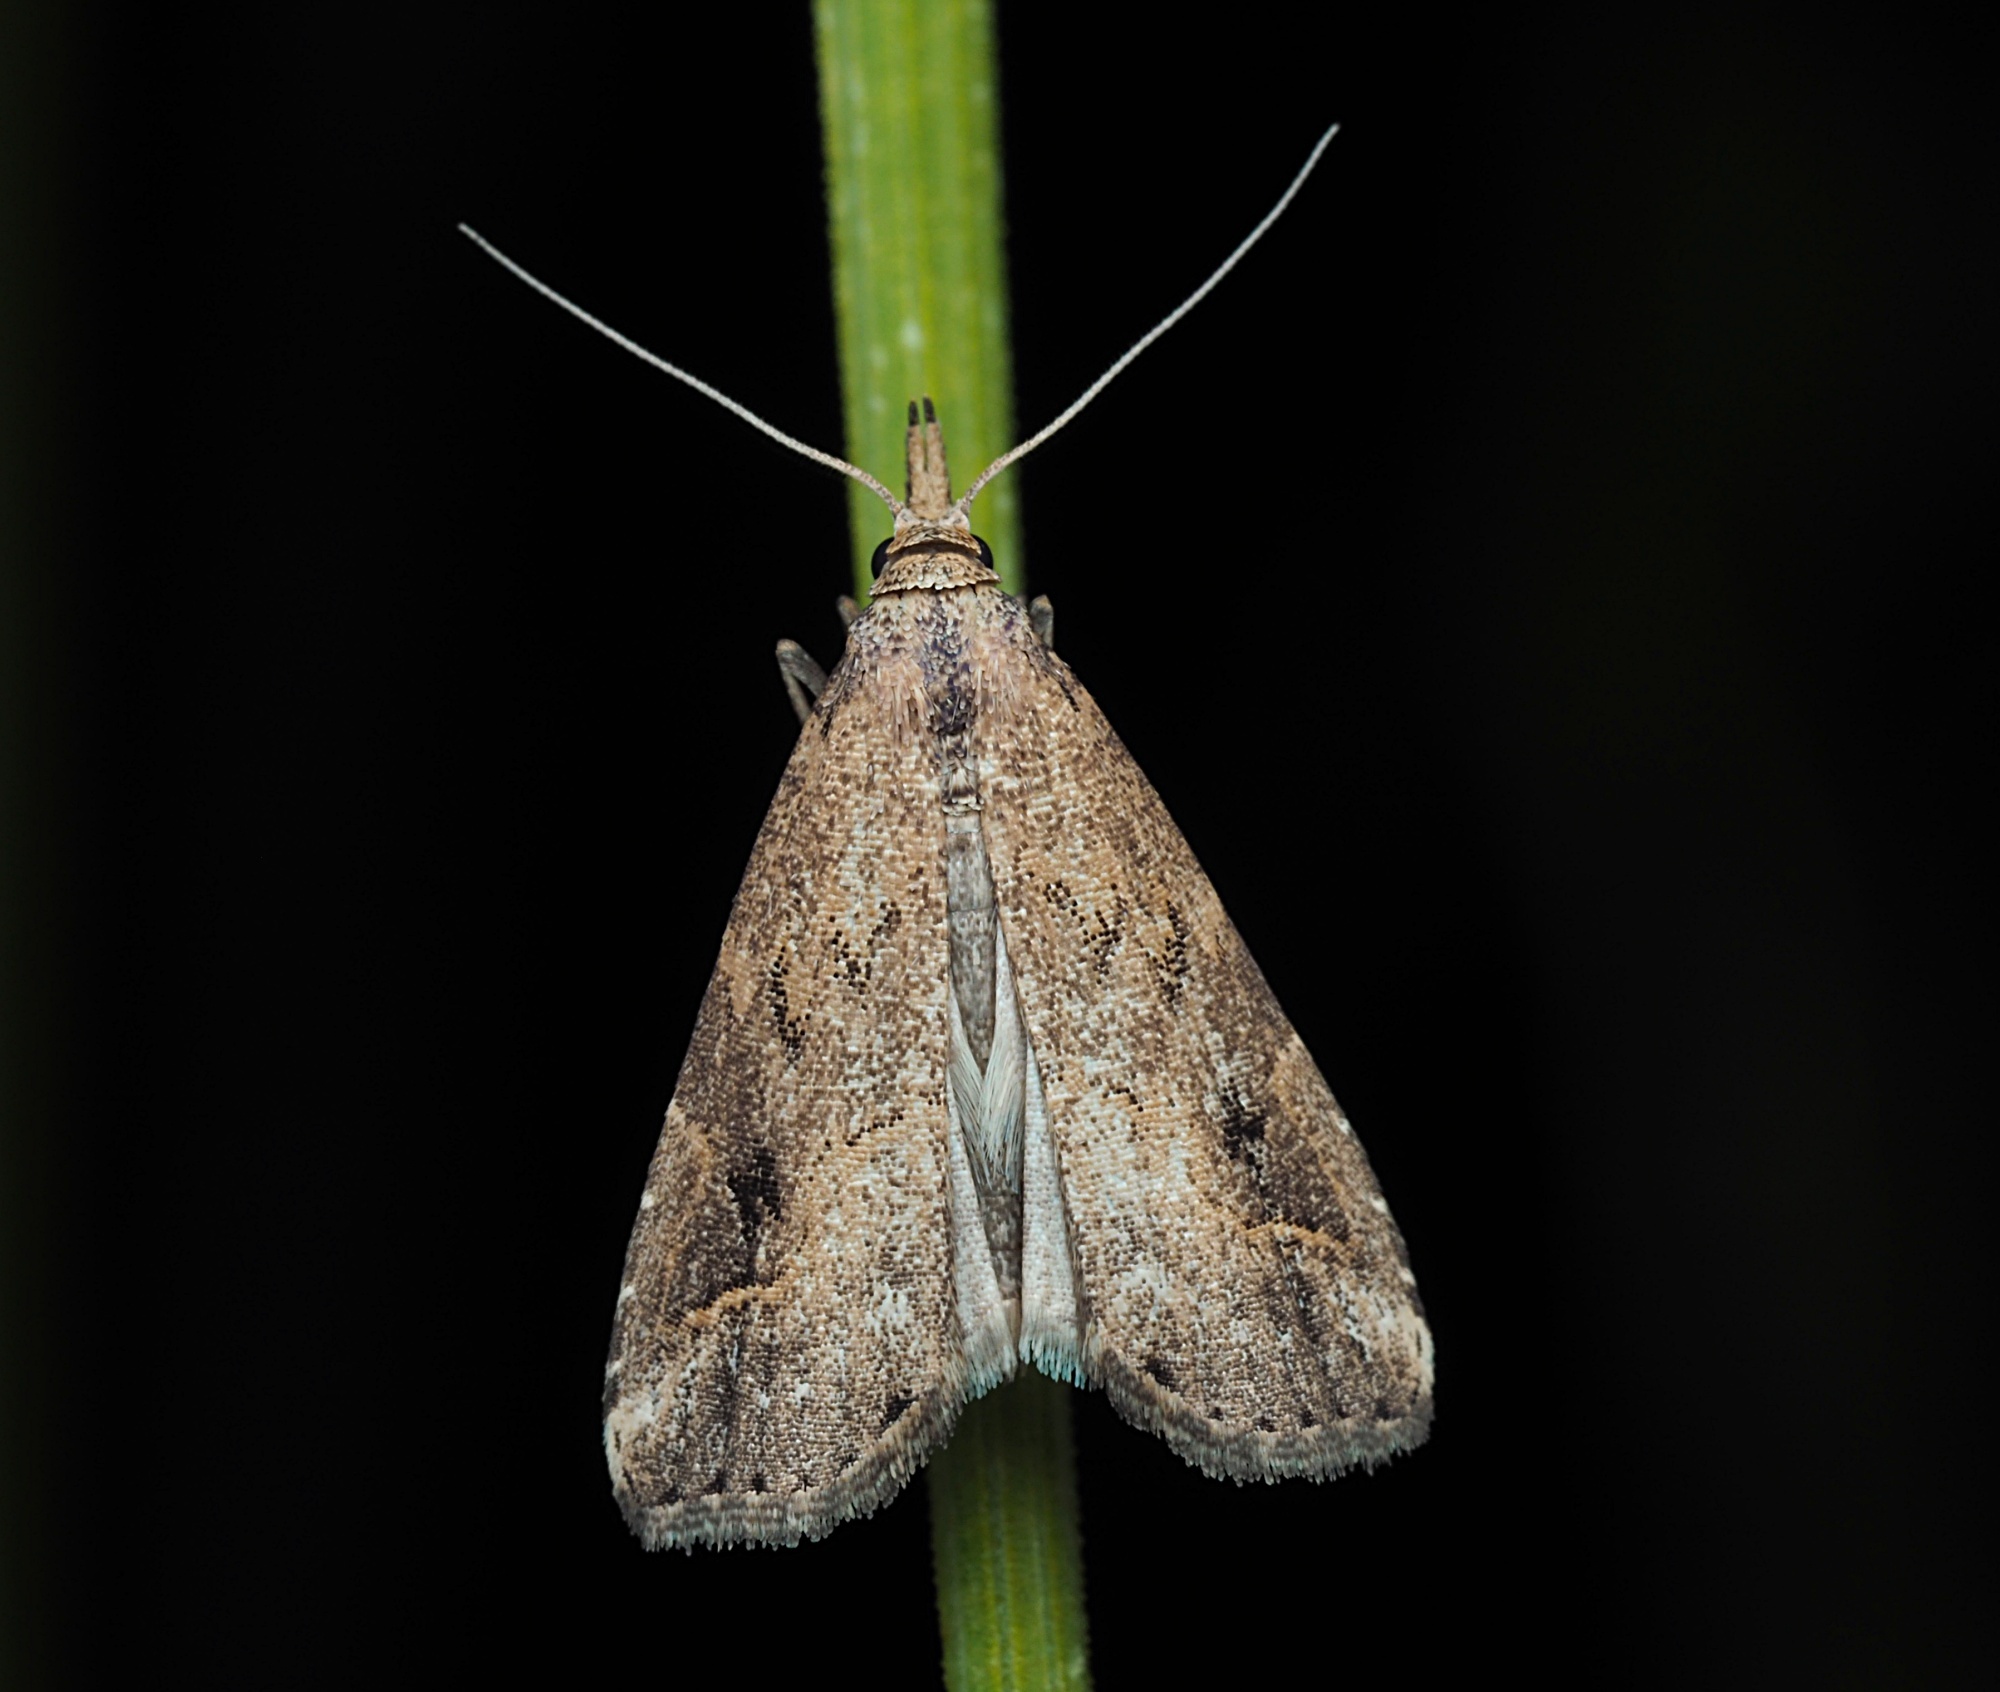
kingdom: Animalia
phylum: Arthropoda
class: Insecta
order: Lepidoptera
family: Erebidae
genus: Schrankia
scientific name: Schrankia costaestrigalis
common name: Pinion-streaked snout
